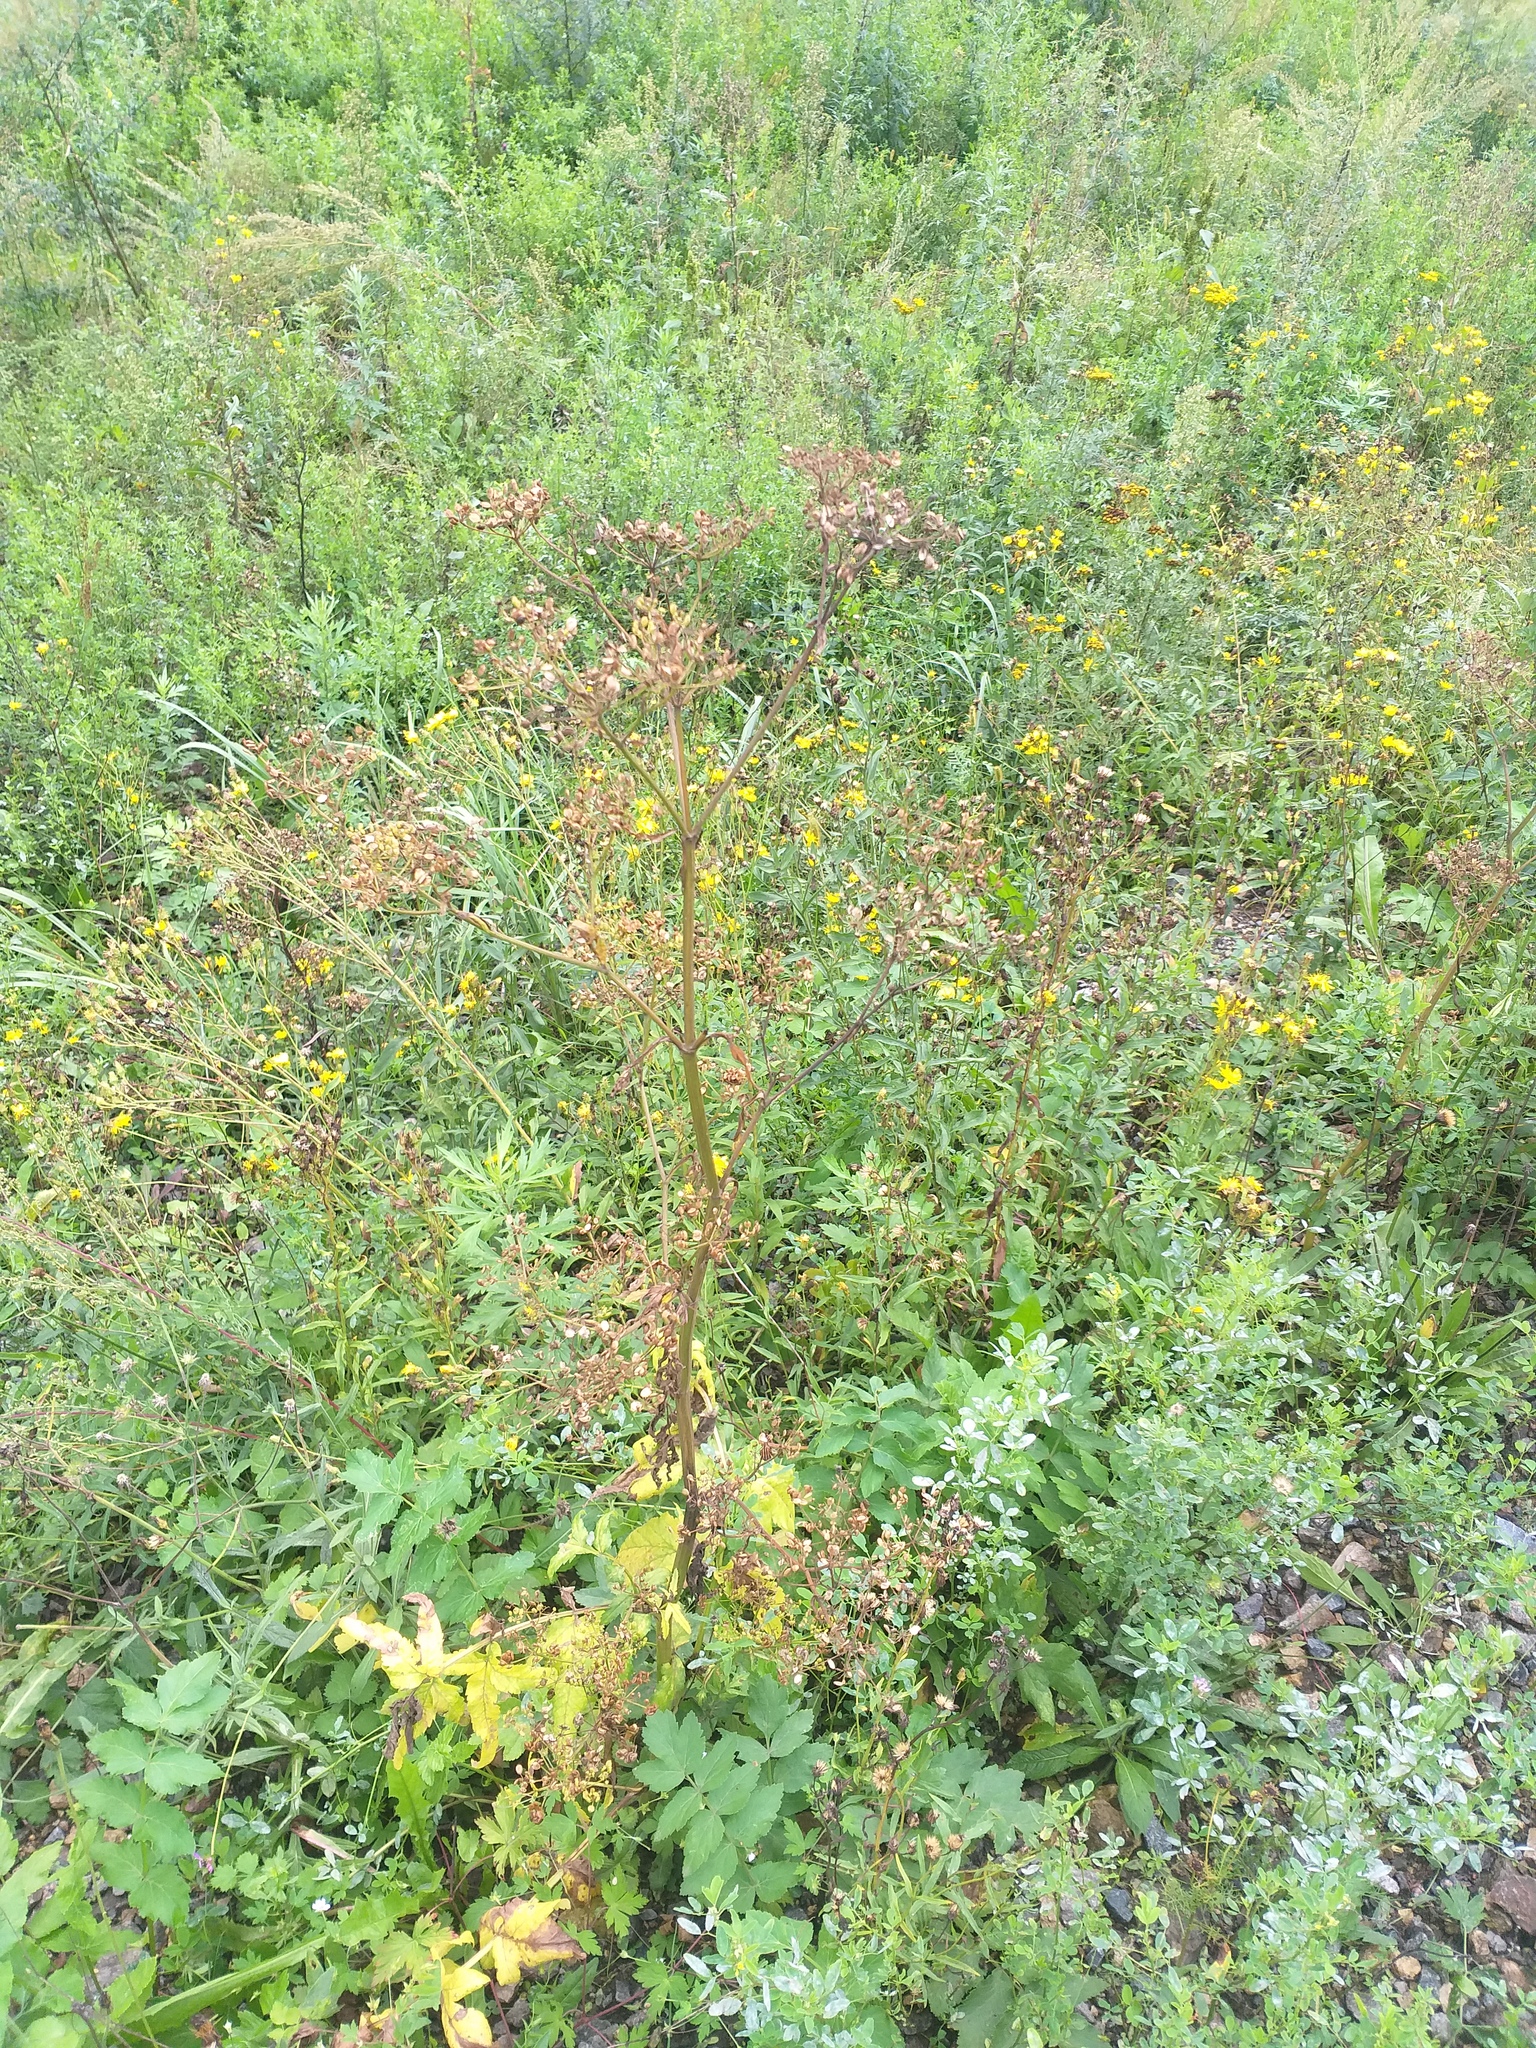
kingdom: Plantae
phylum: Tracheophyta
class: Magnoliopsida
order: Apiales
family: Apiaceae
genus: Pastinaca
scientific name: Pastinaca sativa
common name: Wild parsnip
